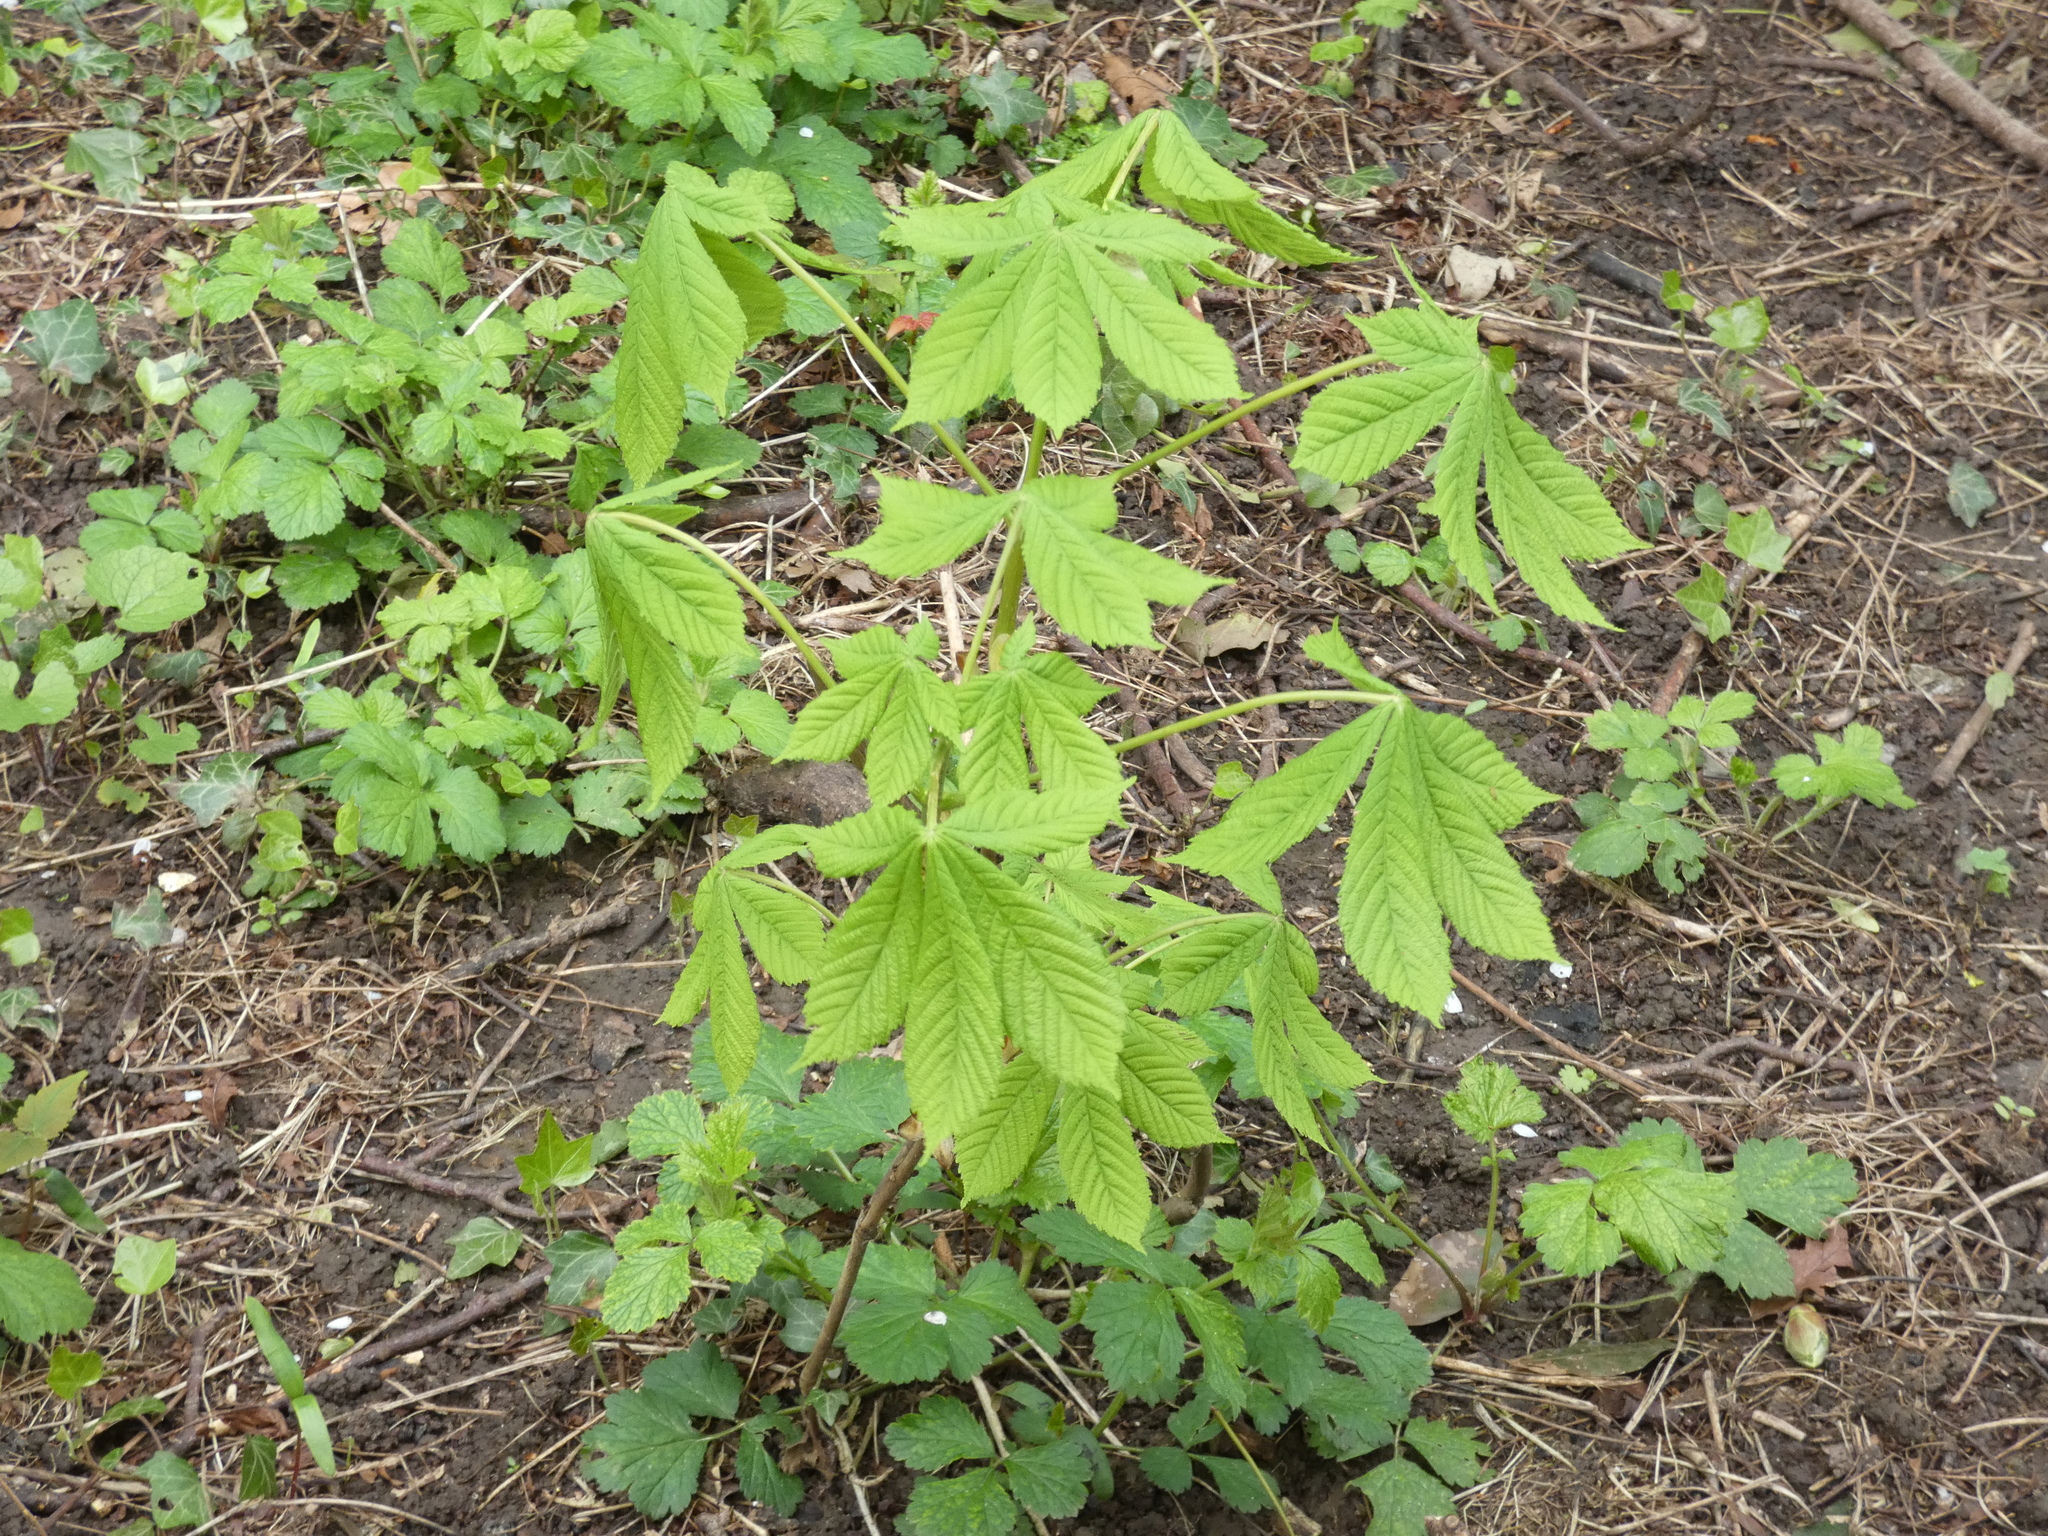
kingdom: Plantae
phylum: Tracheophyta
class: Magnoliopsida
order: Sapindales
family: Sapindaceae
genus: Aesculus
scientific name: Aesculus hippocastanum
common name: Horse-chestnut
